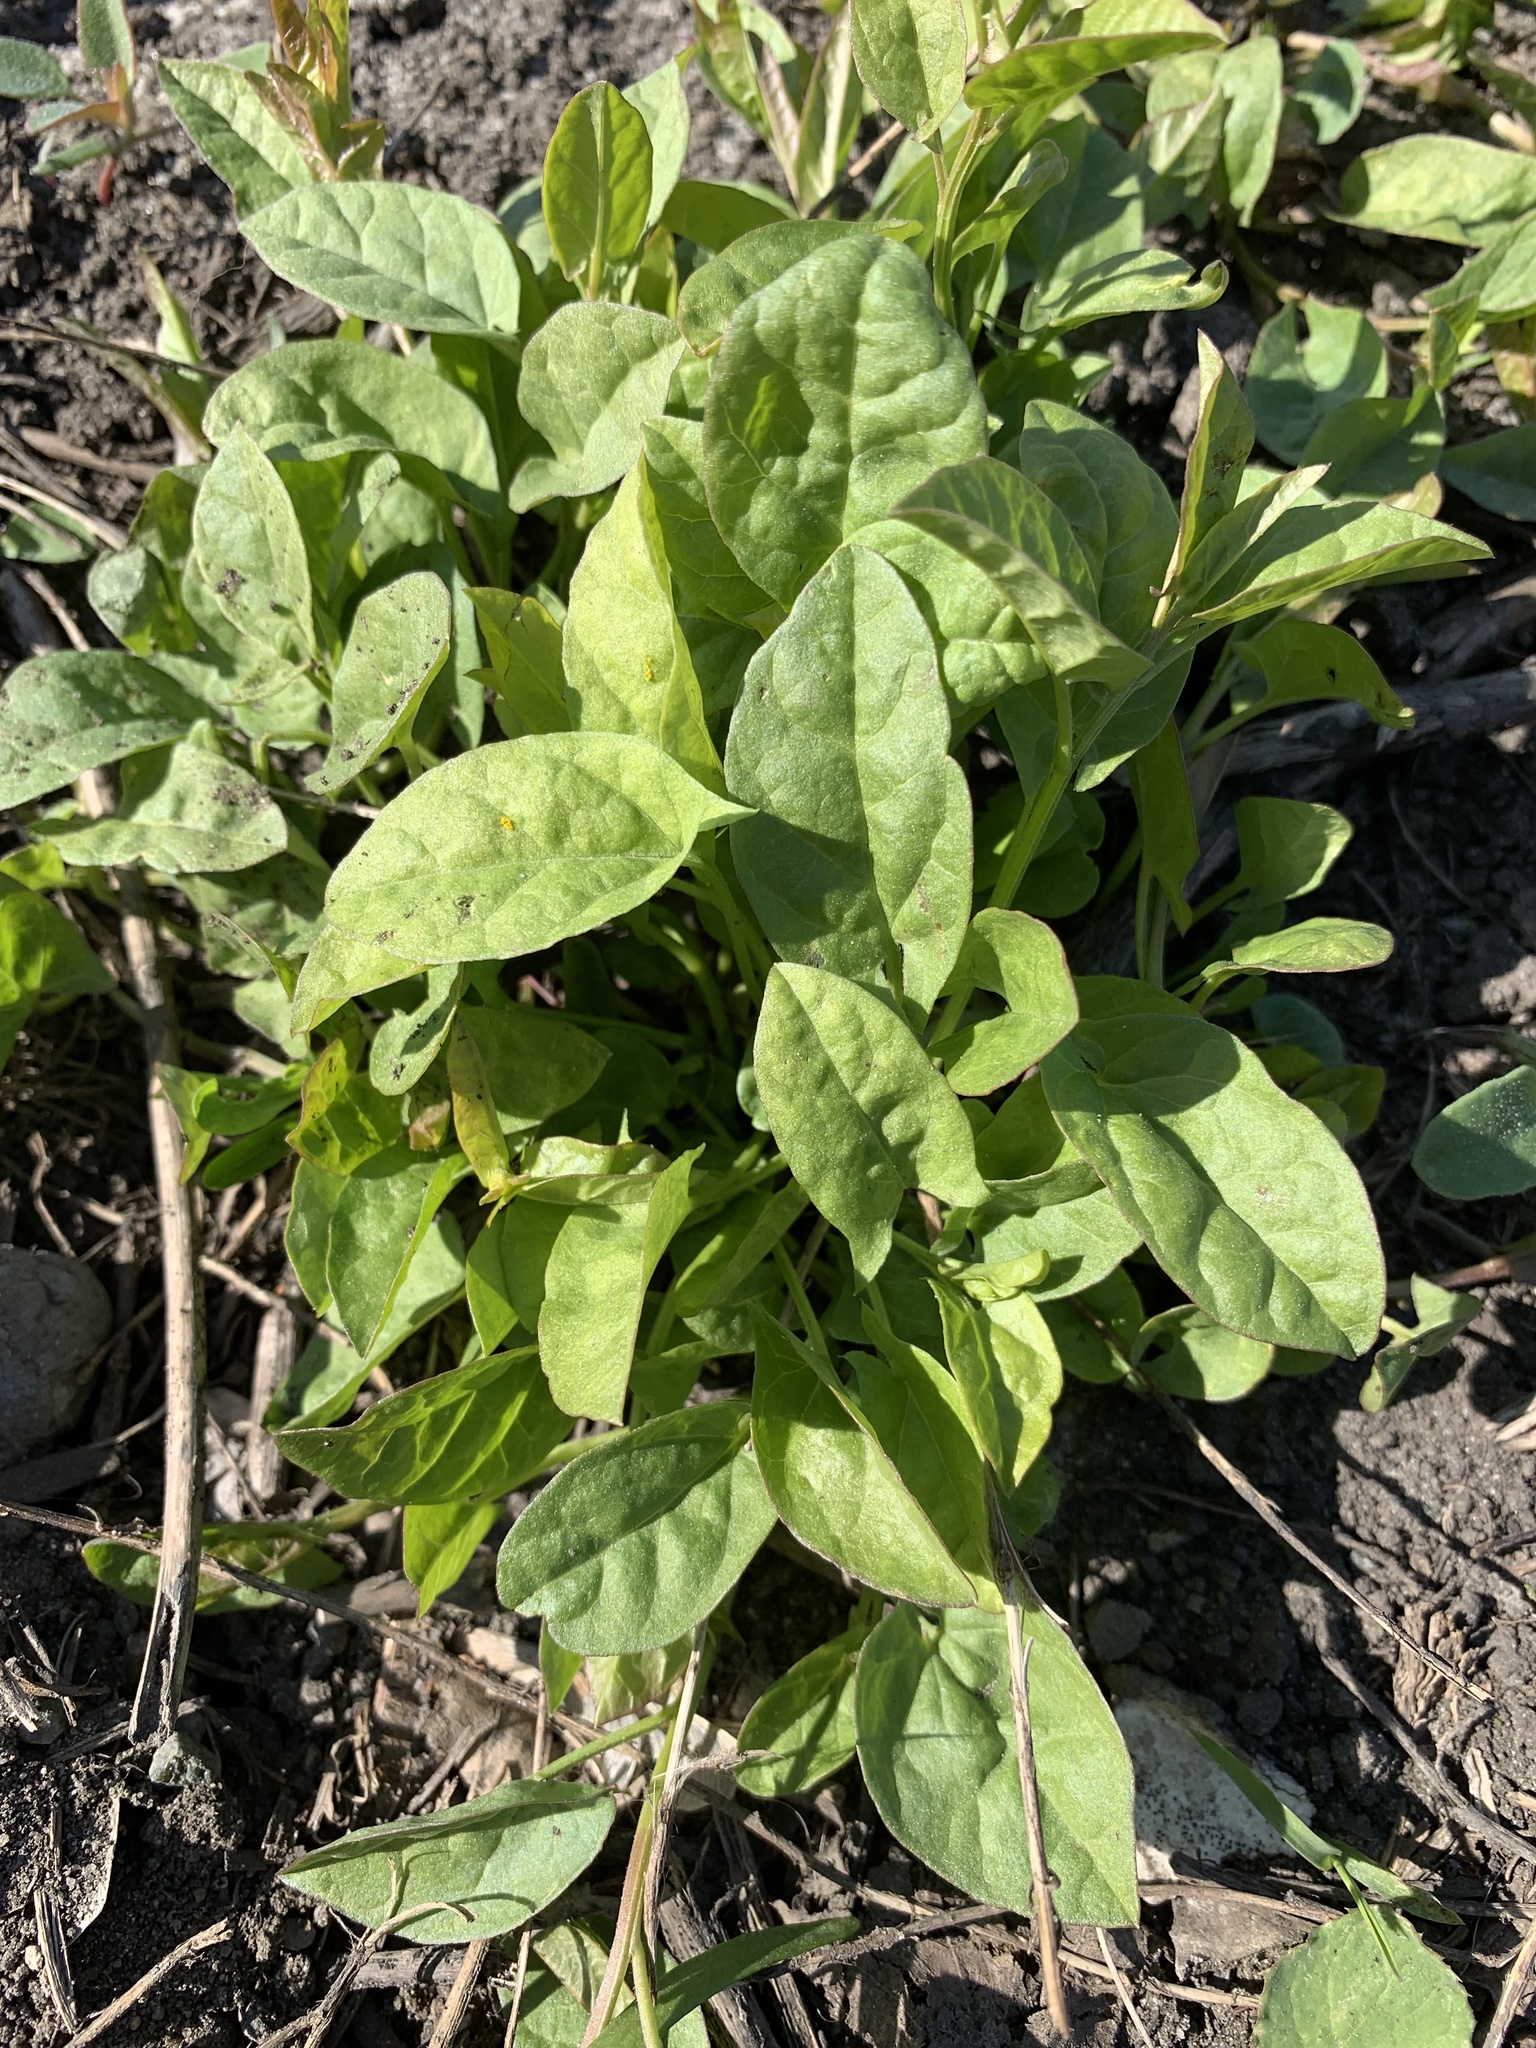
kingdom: Plantae
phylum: Tracheophyta
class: Magnoliopsida
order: Solanales
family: Convolvulaceae
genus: Convolvulus
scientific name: Convolvulus arvensis
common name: Field bindweed
